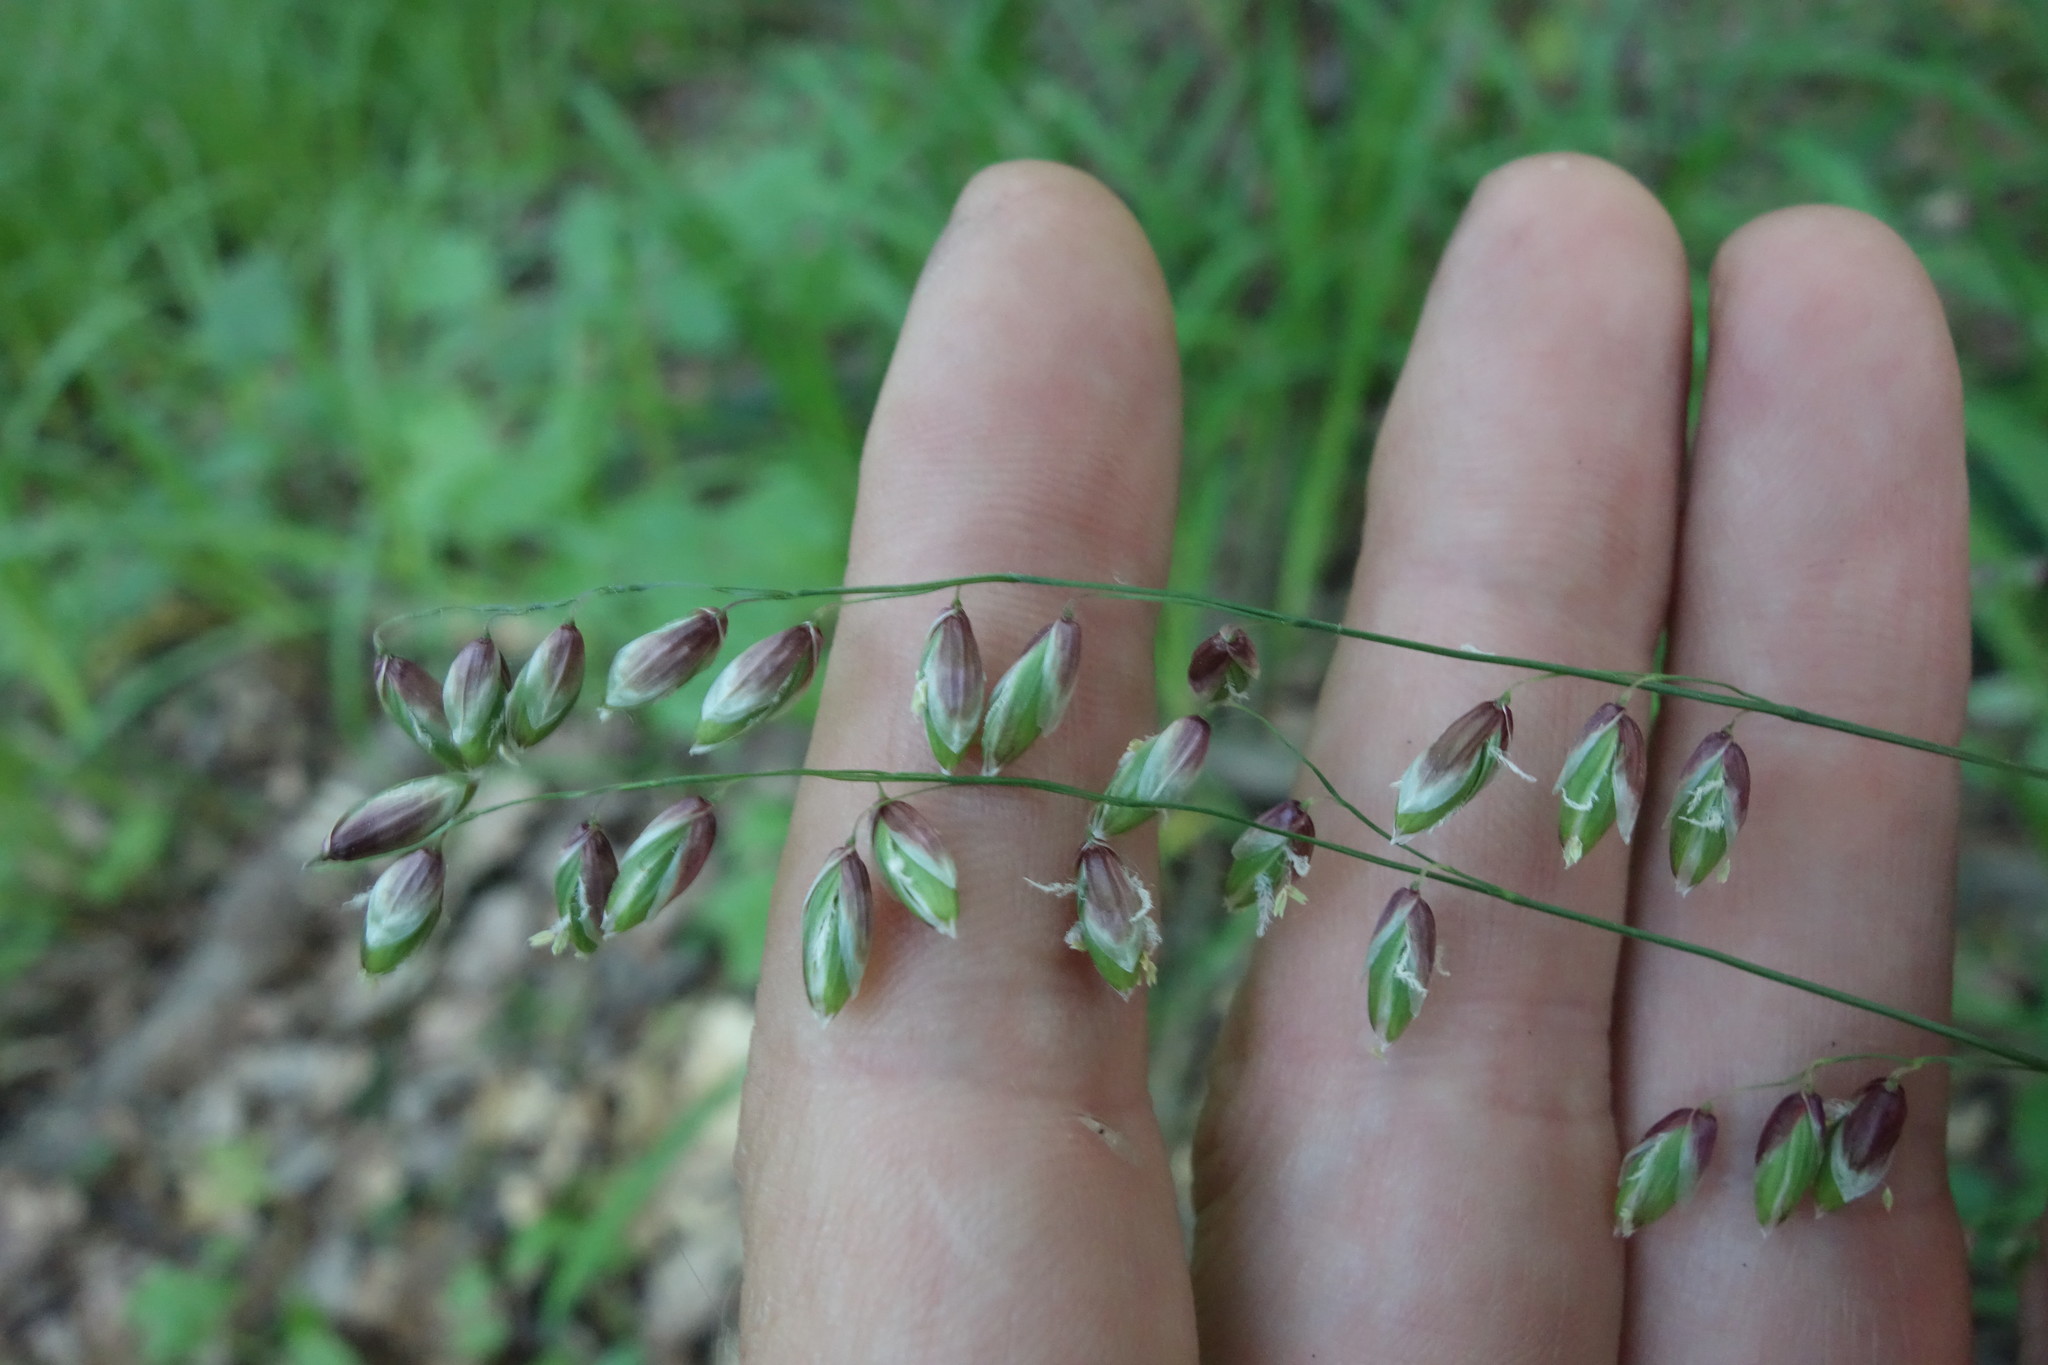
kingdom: Plantae
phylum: Tracheophyta
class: Liliopsida
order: Poales
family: Poaceae
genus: Melica
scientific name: Melica nutans
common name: Mountain melick
